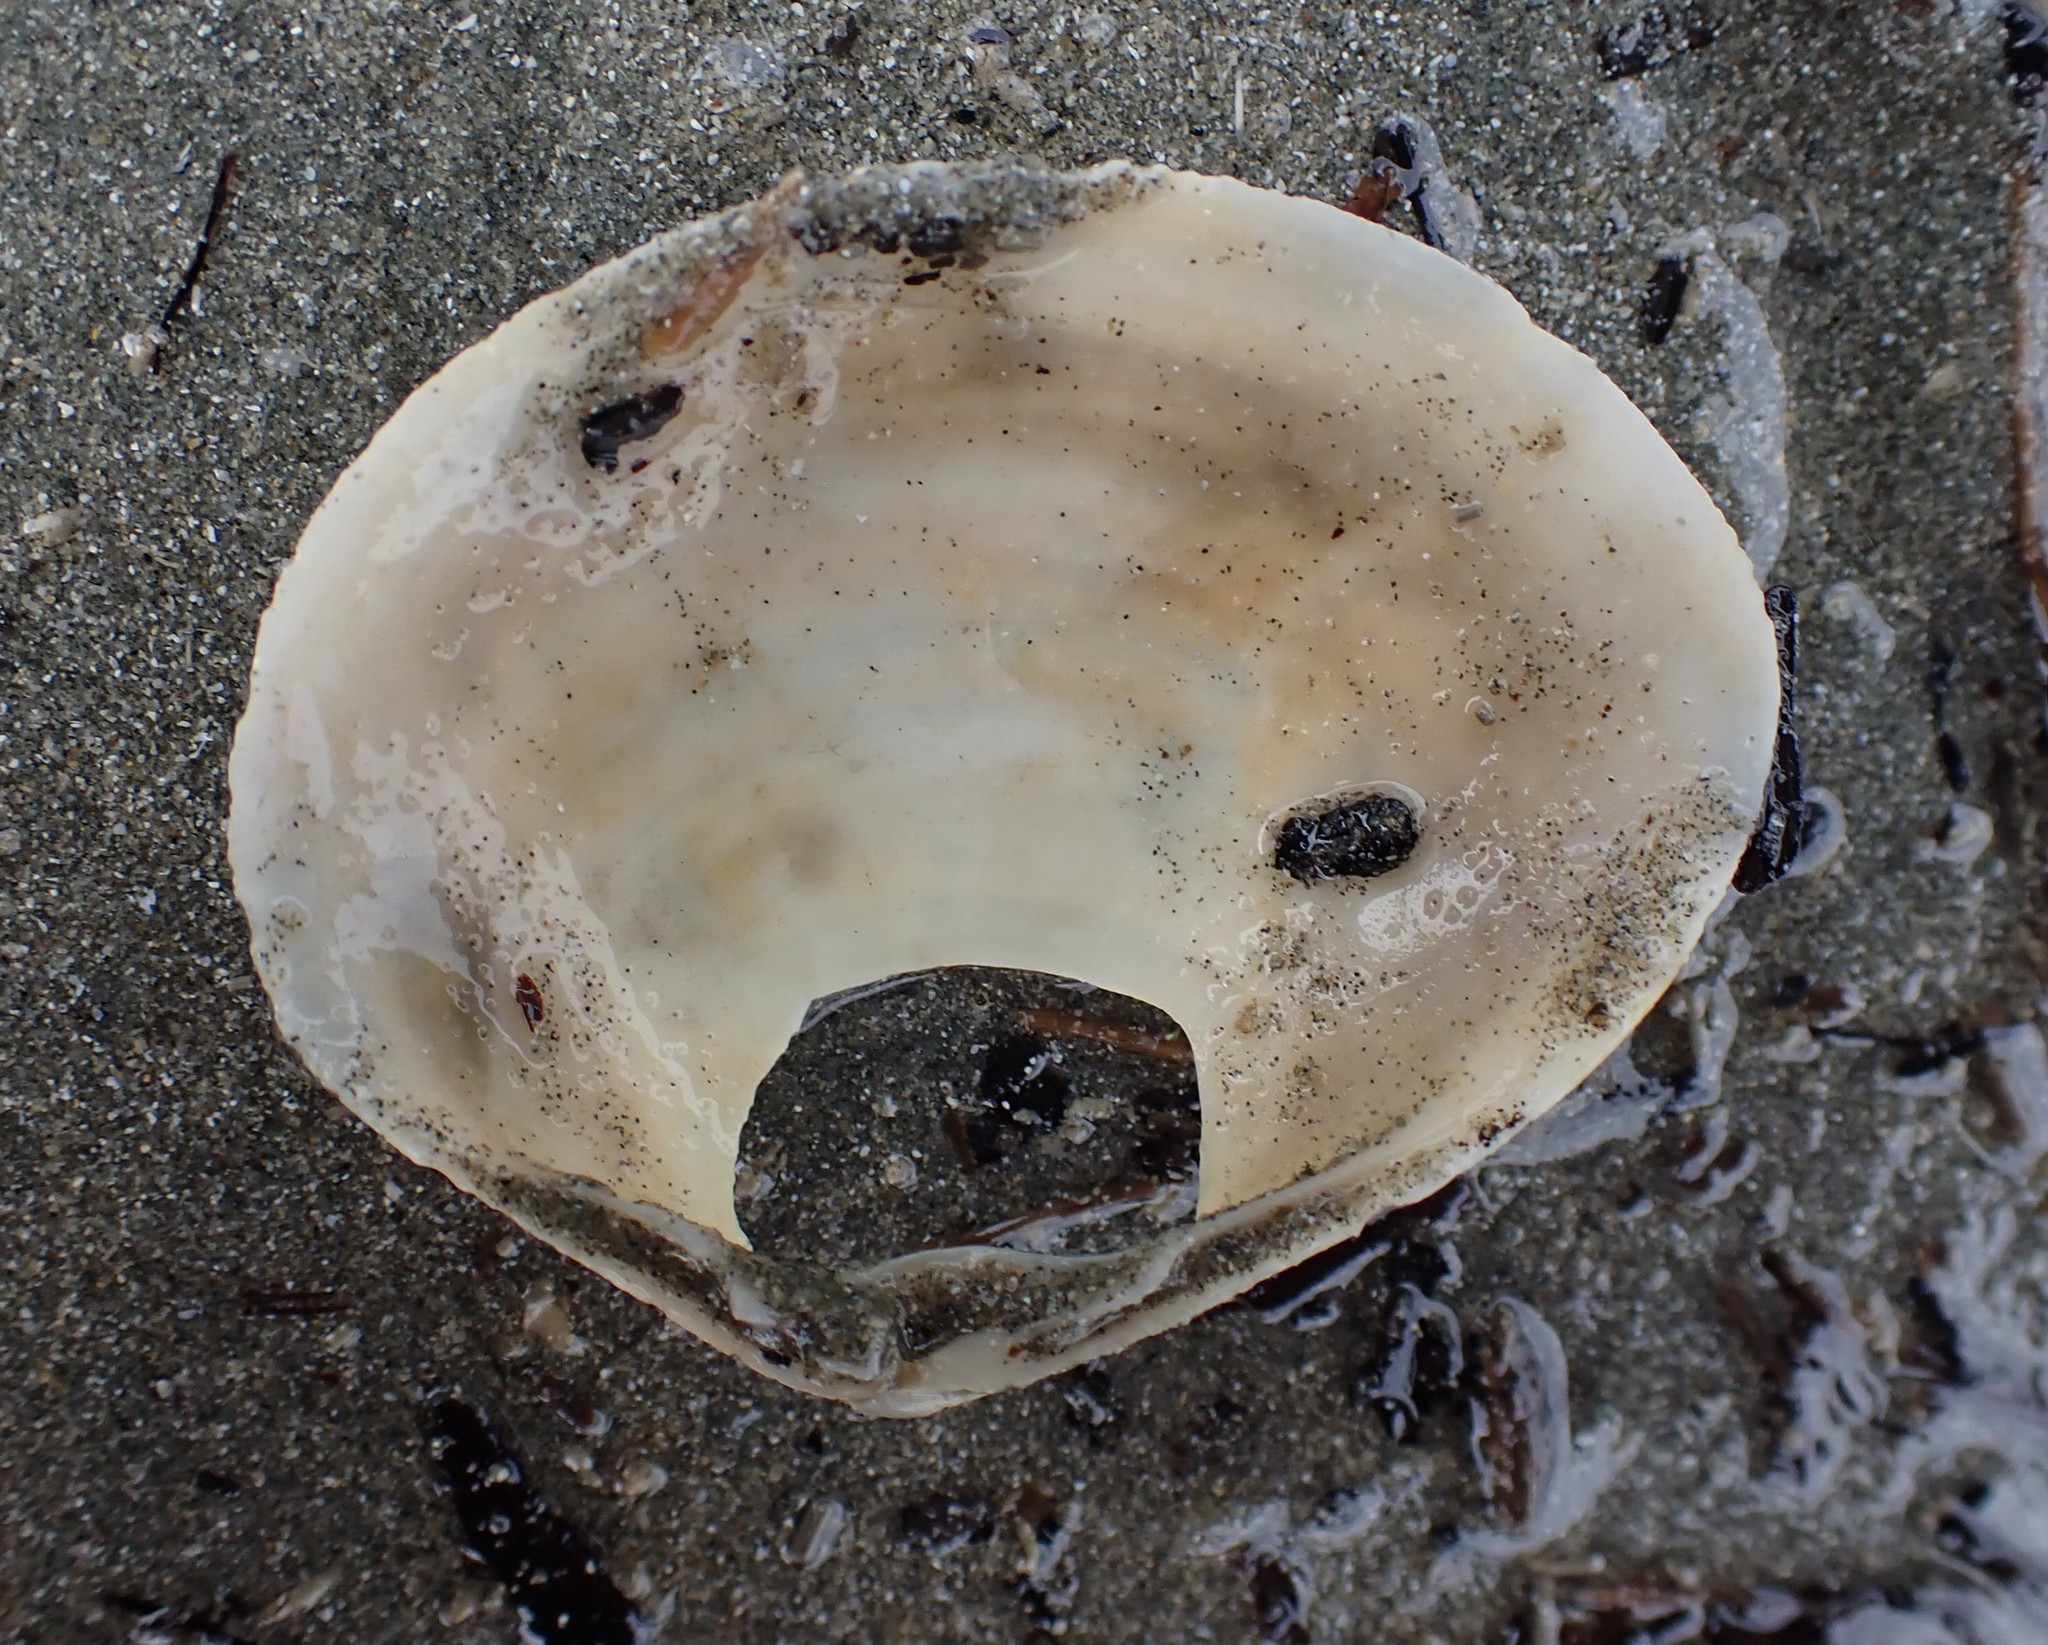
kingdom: Animalia
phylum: Mollusca
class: Bivalvia
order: Venerida
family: Mactridae
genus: Cyclomactra
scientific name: Cyclomactra ovata
